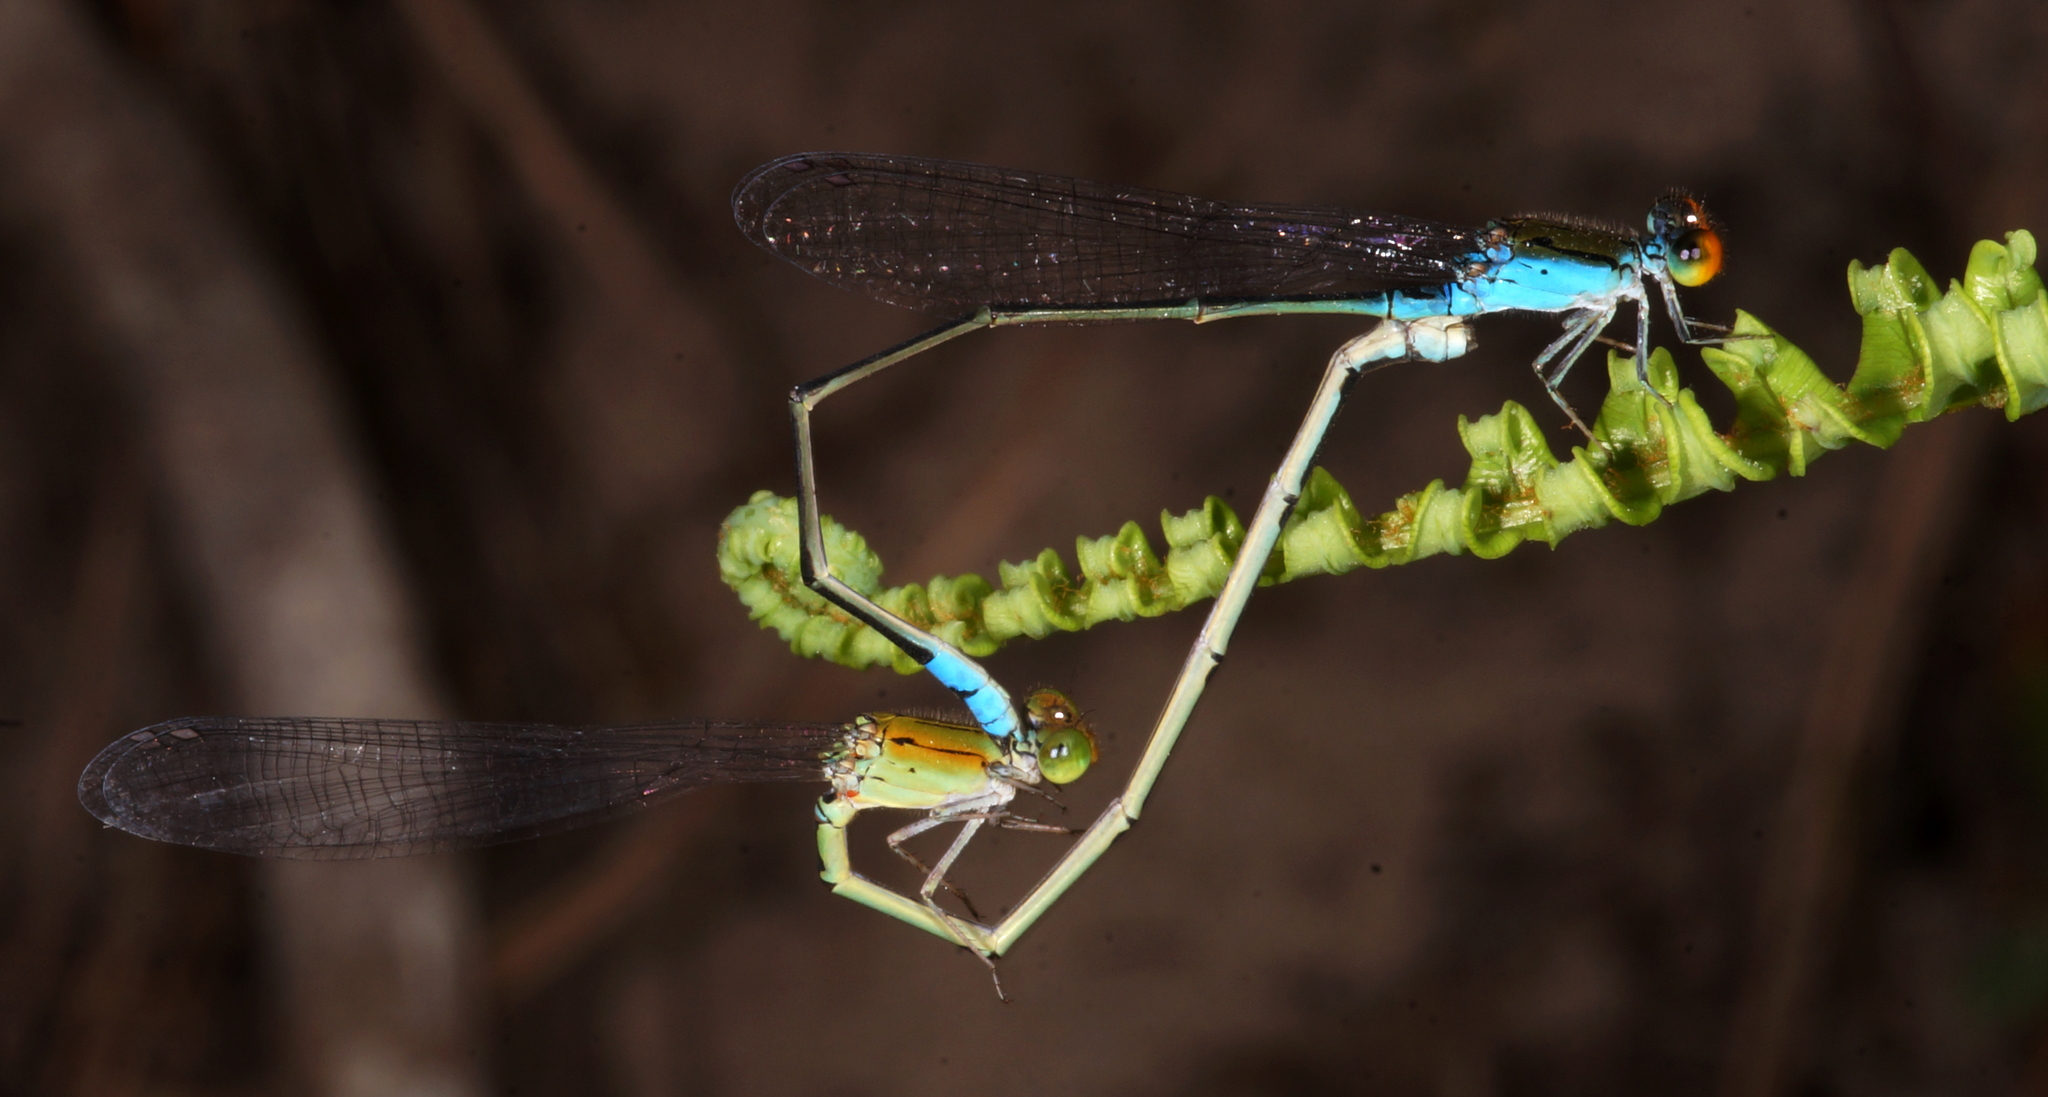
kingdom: Animalia
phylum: Arthropoda
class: Insecta
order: Odonata
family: Coenagrionidae
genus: Pseudagrion
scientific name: Pseudagrion rubriceps
